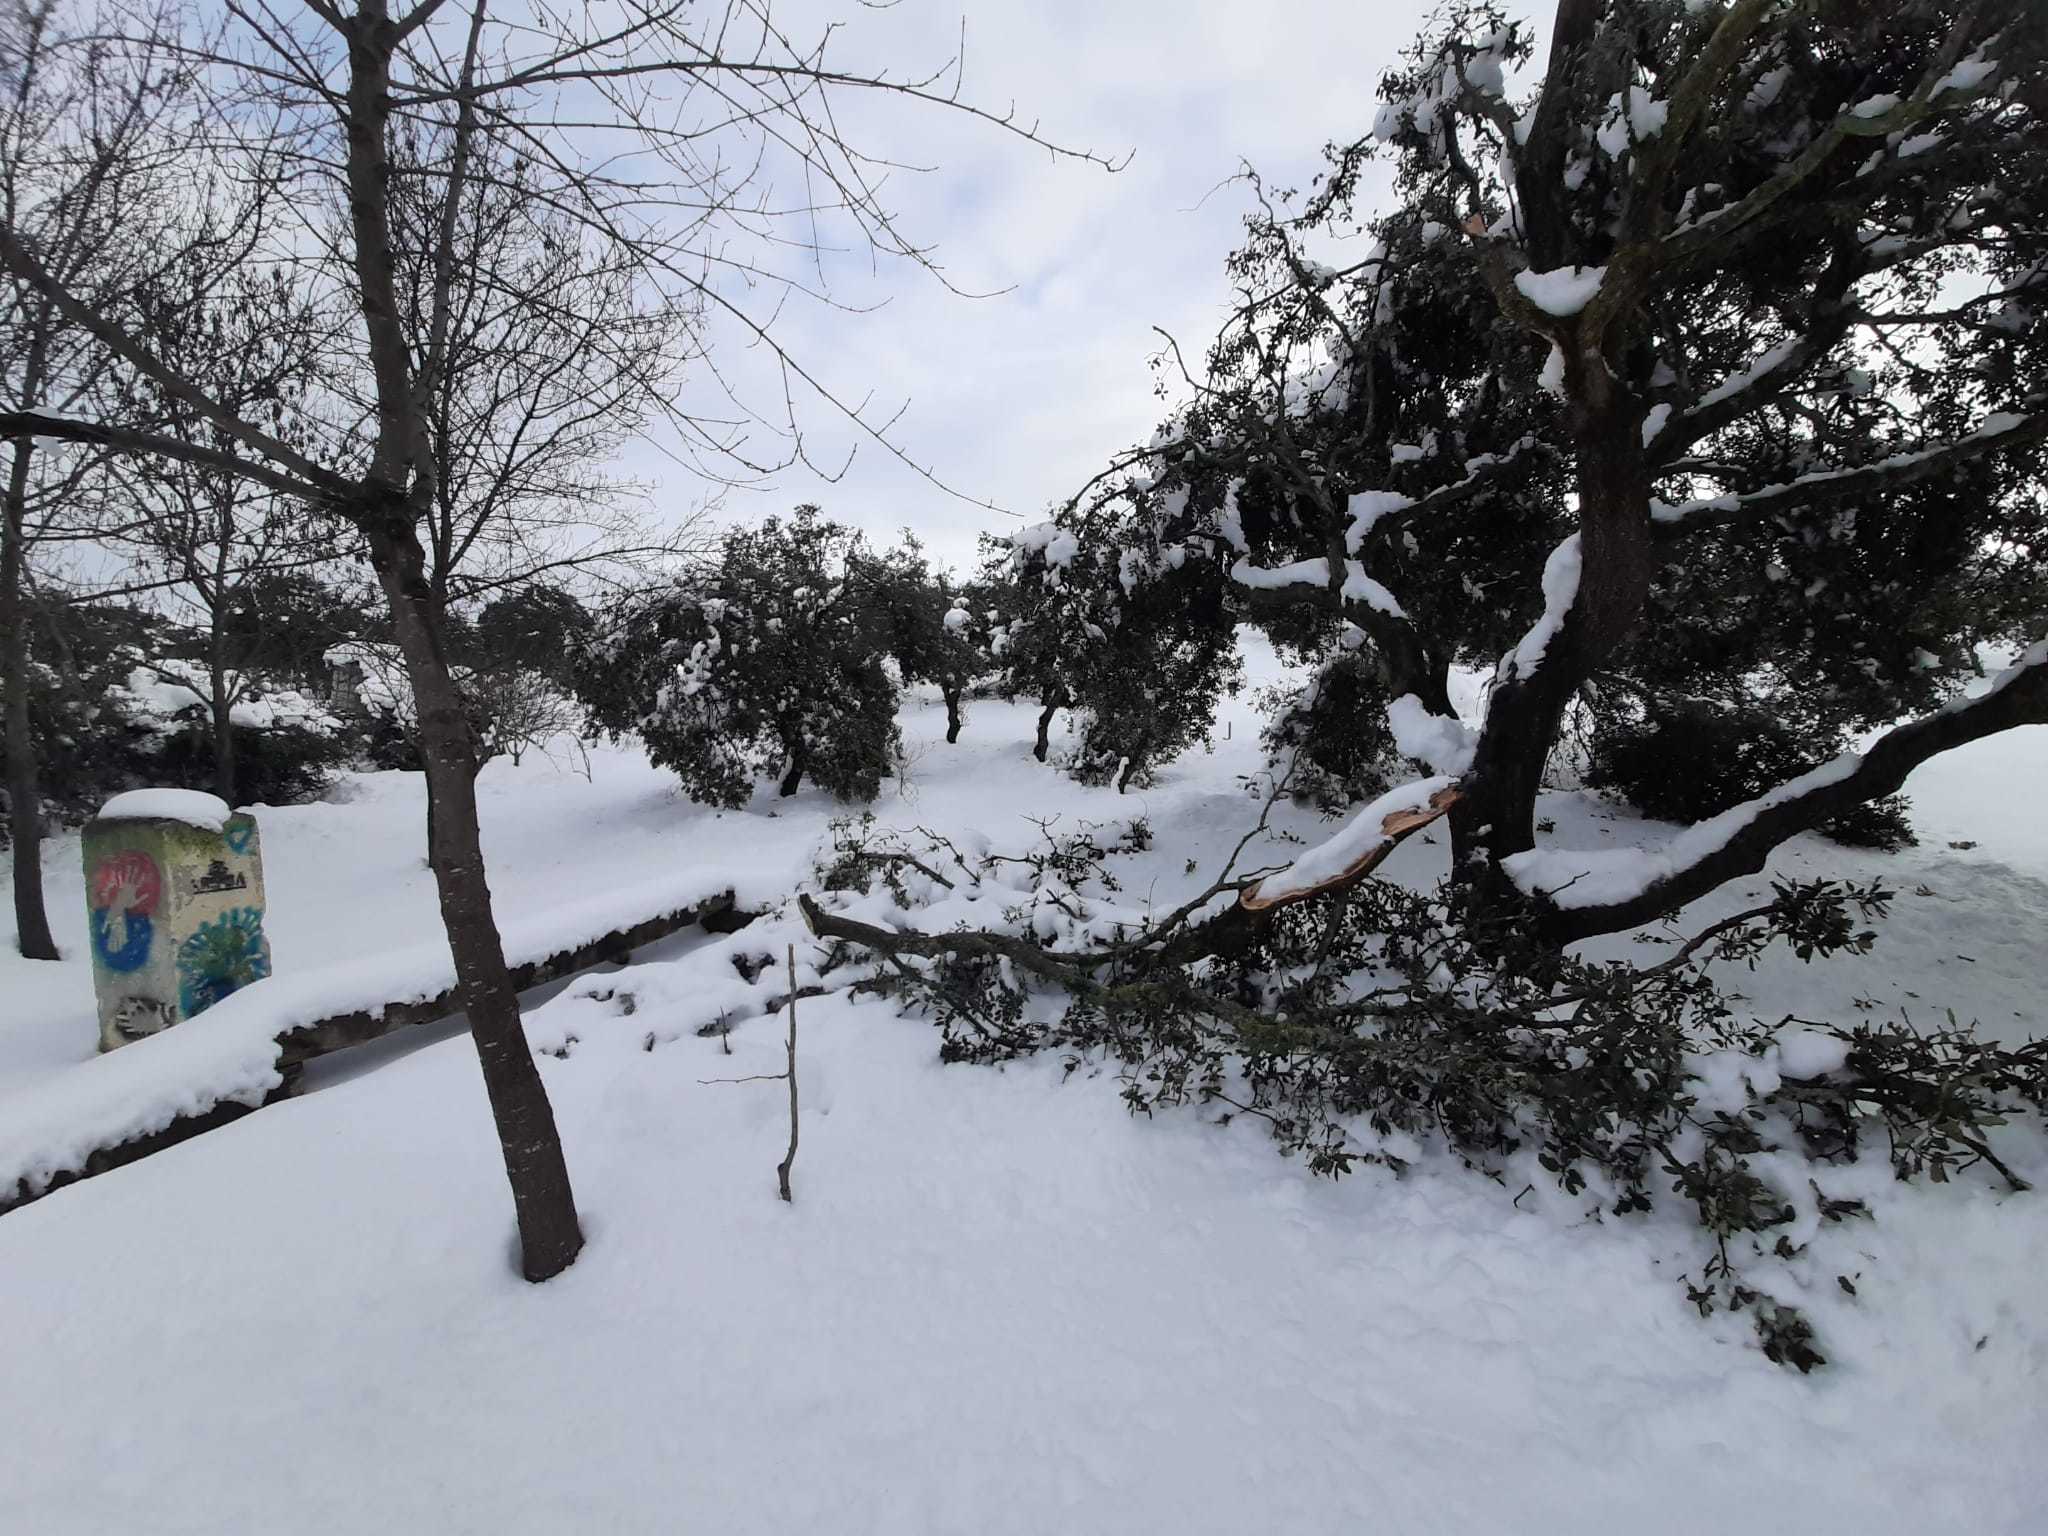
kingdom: Plantae
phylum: Tracheophyta
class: Magnoliopsida
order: Fagales
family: Fagaceae
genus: Quercus
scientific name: Quercus rotundifolia
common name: Holm oak
